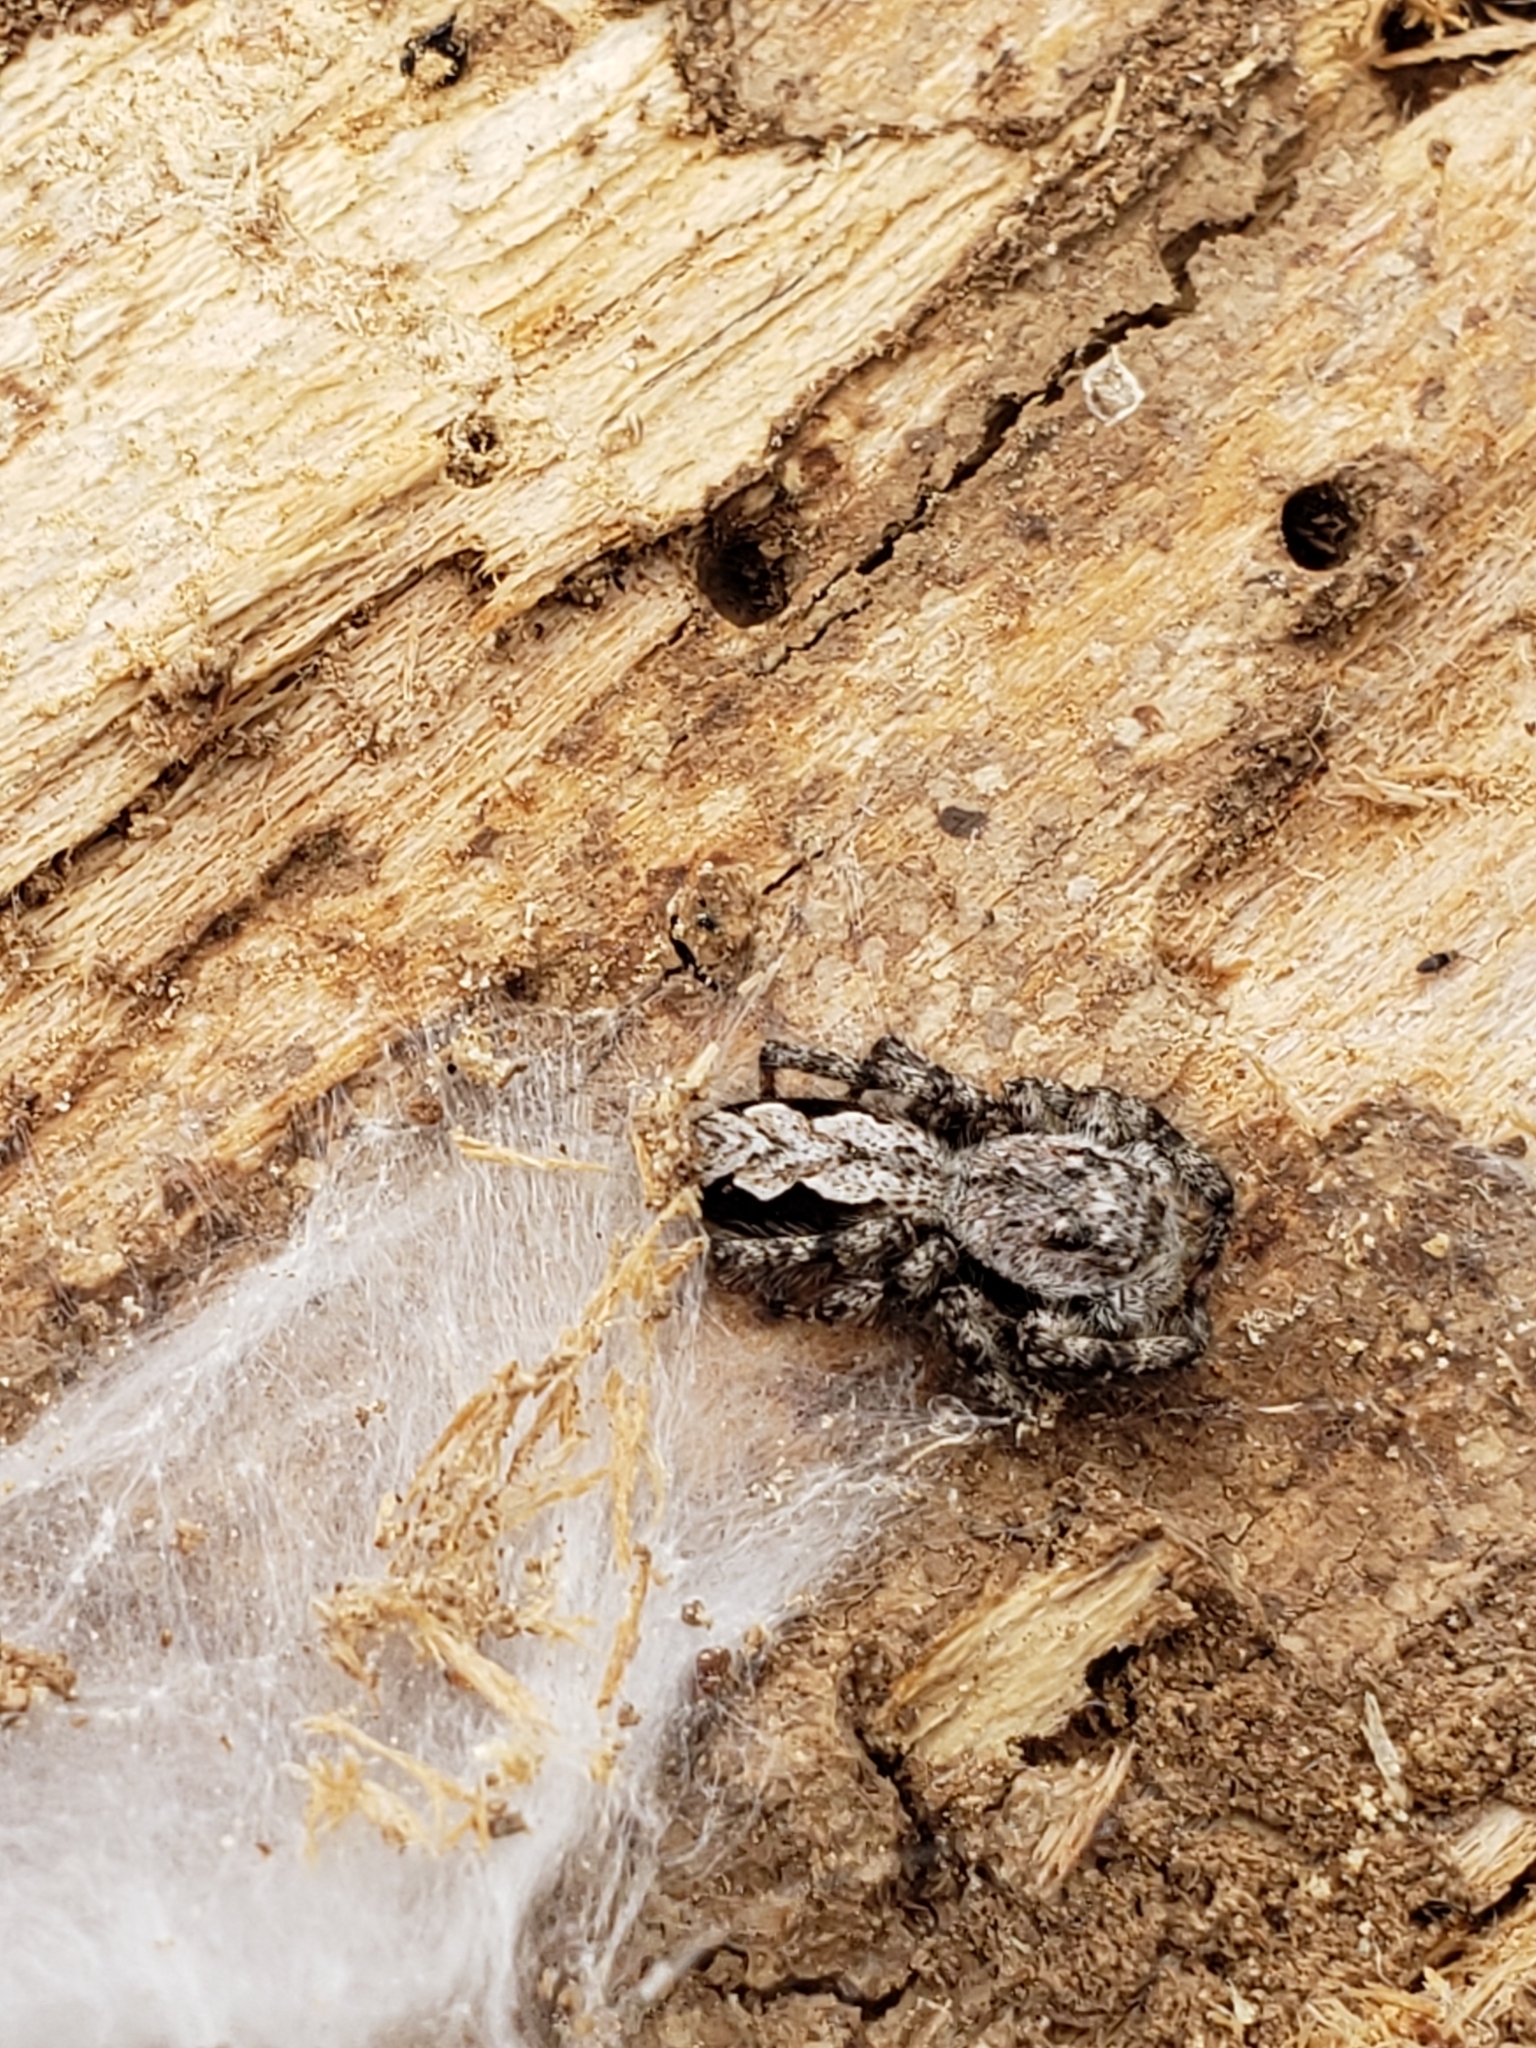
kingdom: Animalia
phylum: Arthropoda
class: Arachnida
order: Araneae
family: Salticidae
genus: Platycryptus
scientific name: Platycryptus undatus
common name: Tan jumping spider
